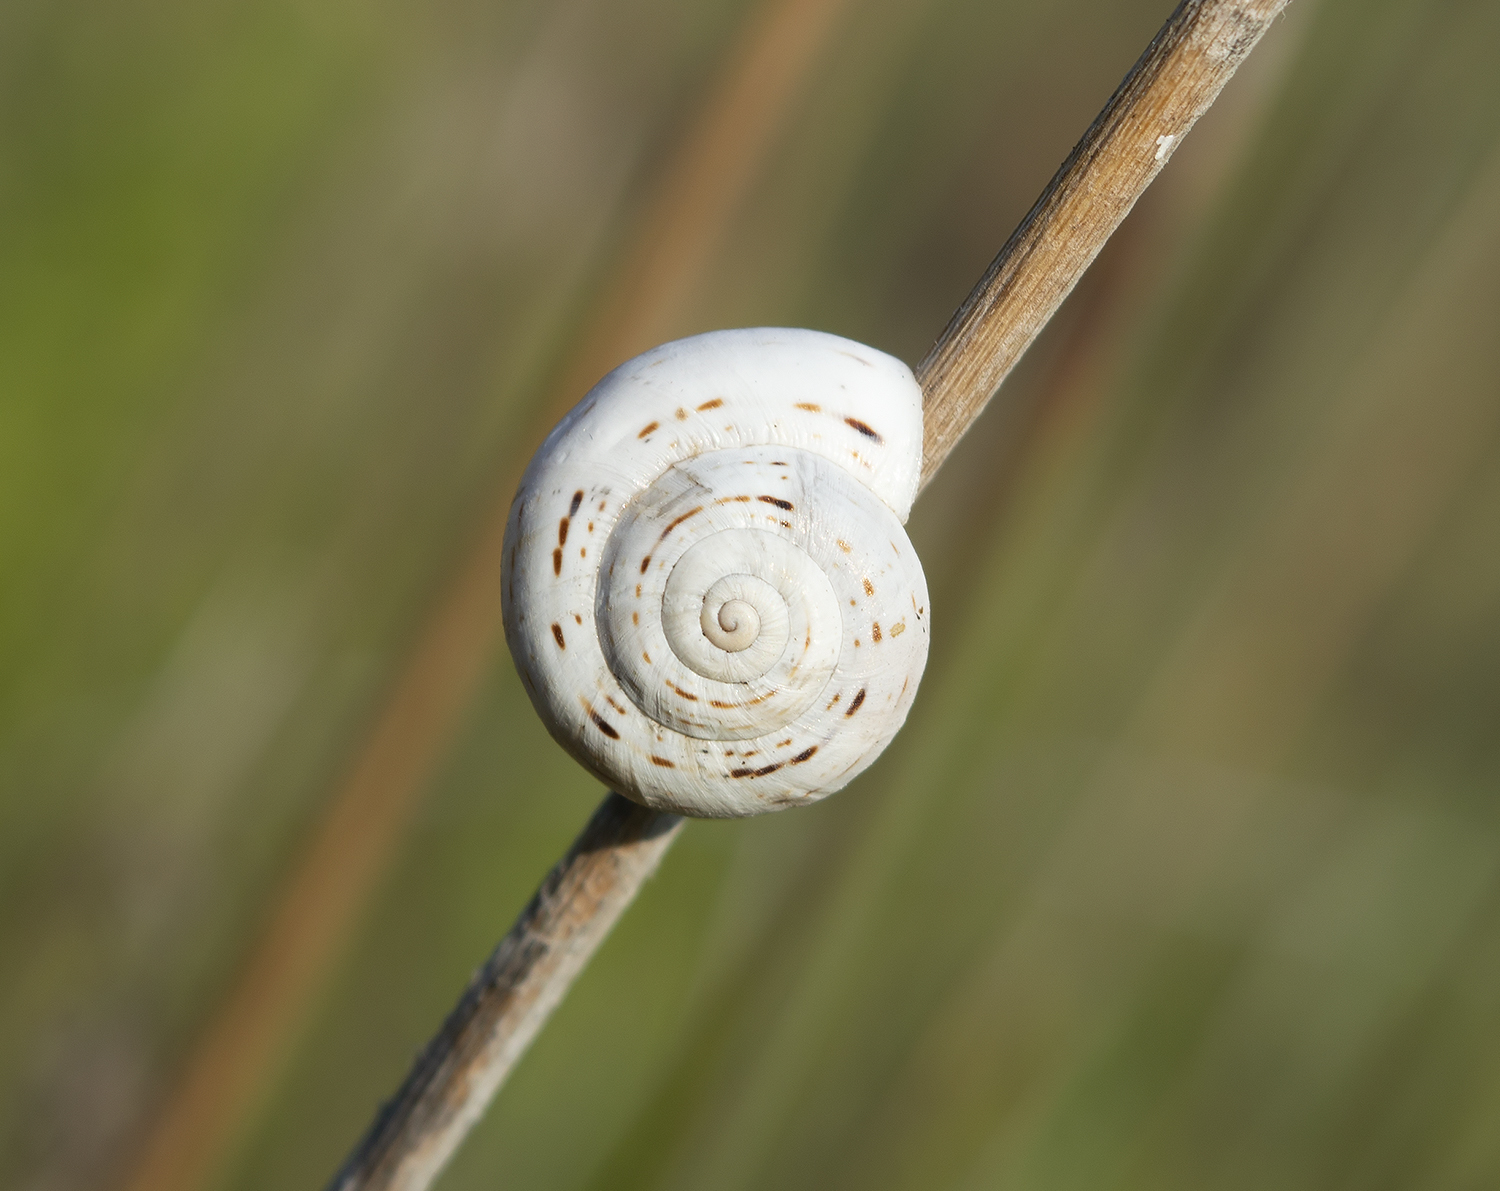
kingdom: Animalia
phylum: Mollusca
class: Gastropoda
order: Stylommatophora
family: Helicidae
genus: Theba
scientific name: Theba pisana
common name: White snail
